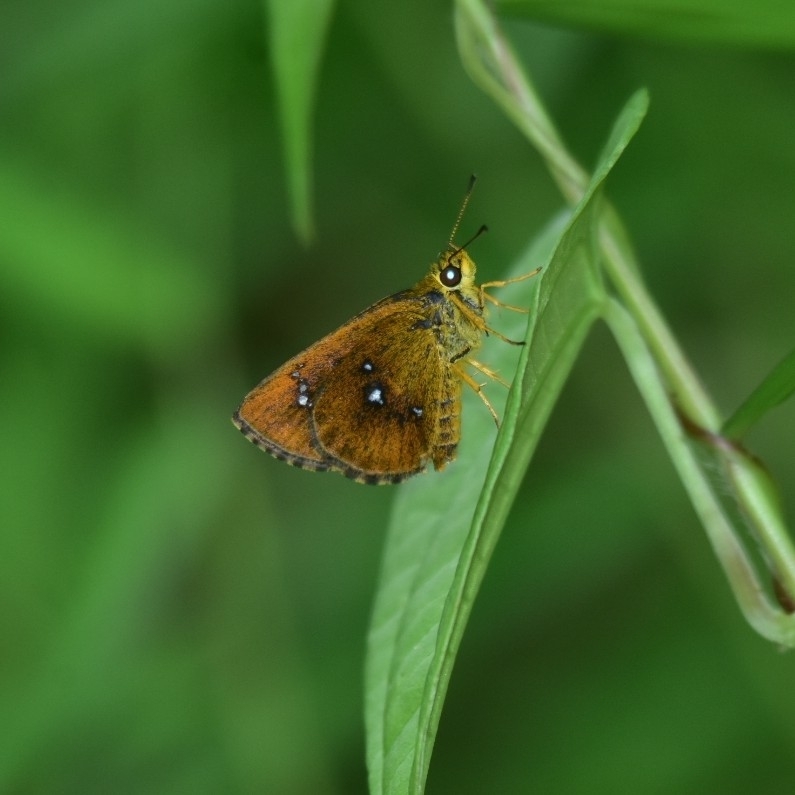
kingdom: Animalia
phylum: Arthropoda
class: Insecta
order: Lepidoptera
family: Hesperiidae
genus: Iambrix
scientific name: Iambrix salsala
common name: Chestnut bob
